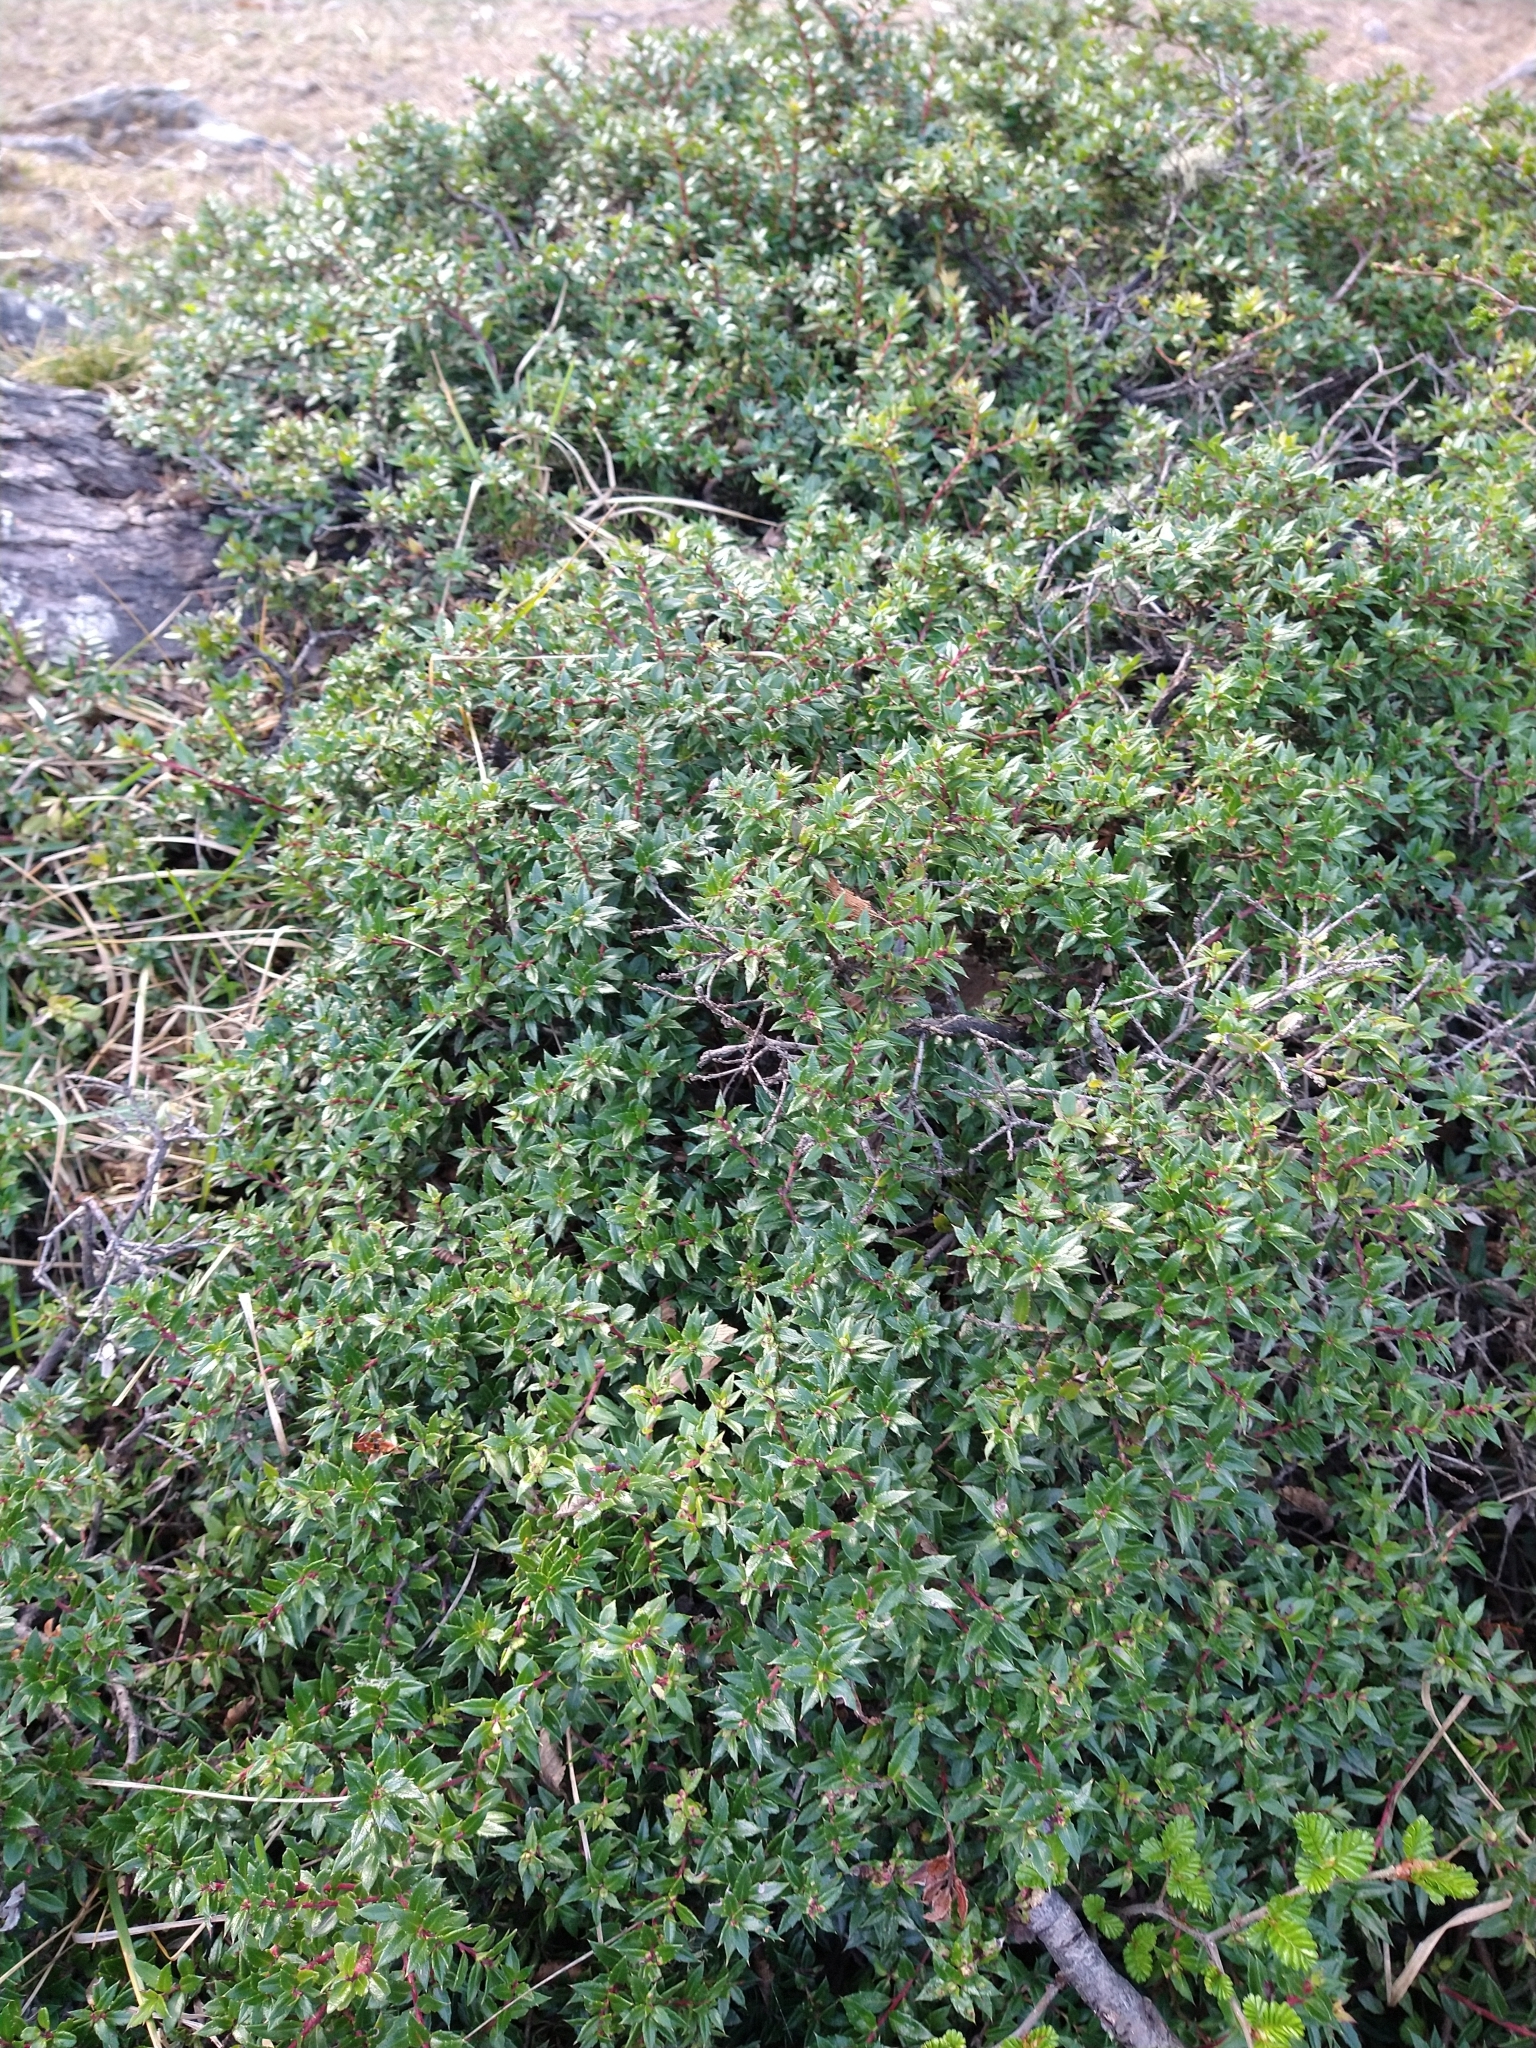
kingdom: Plantae
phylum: Tracheophyta
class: Magnoliopsida
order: Ericales
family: Ericaceae
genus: Gaultheria
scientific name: Gaultheria mucronata
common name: Prickly heath
